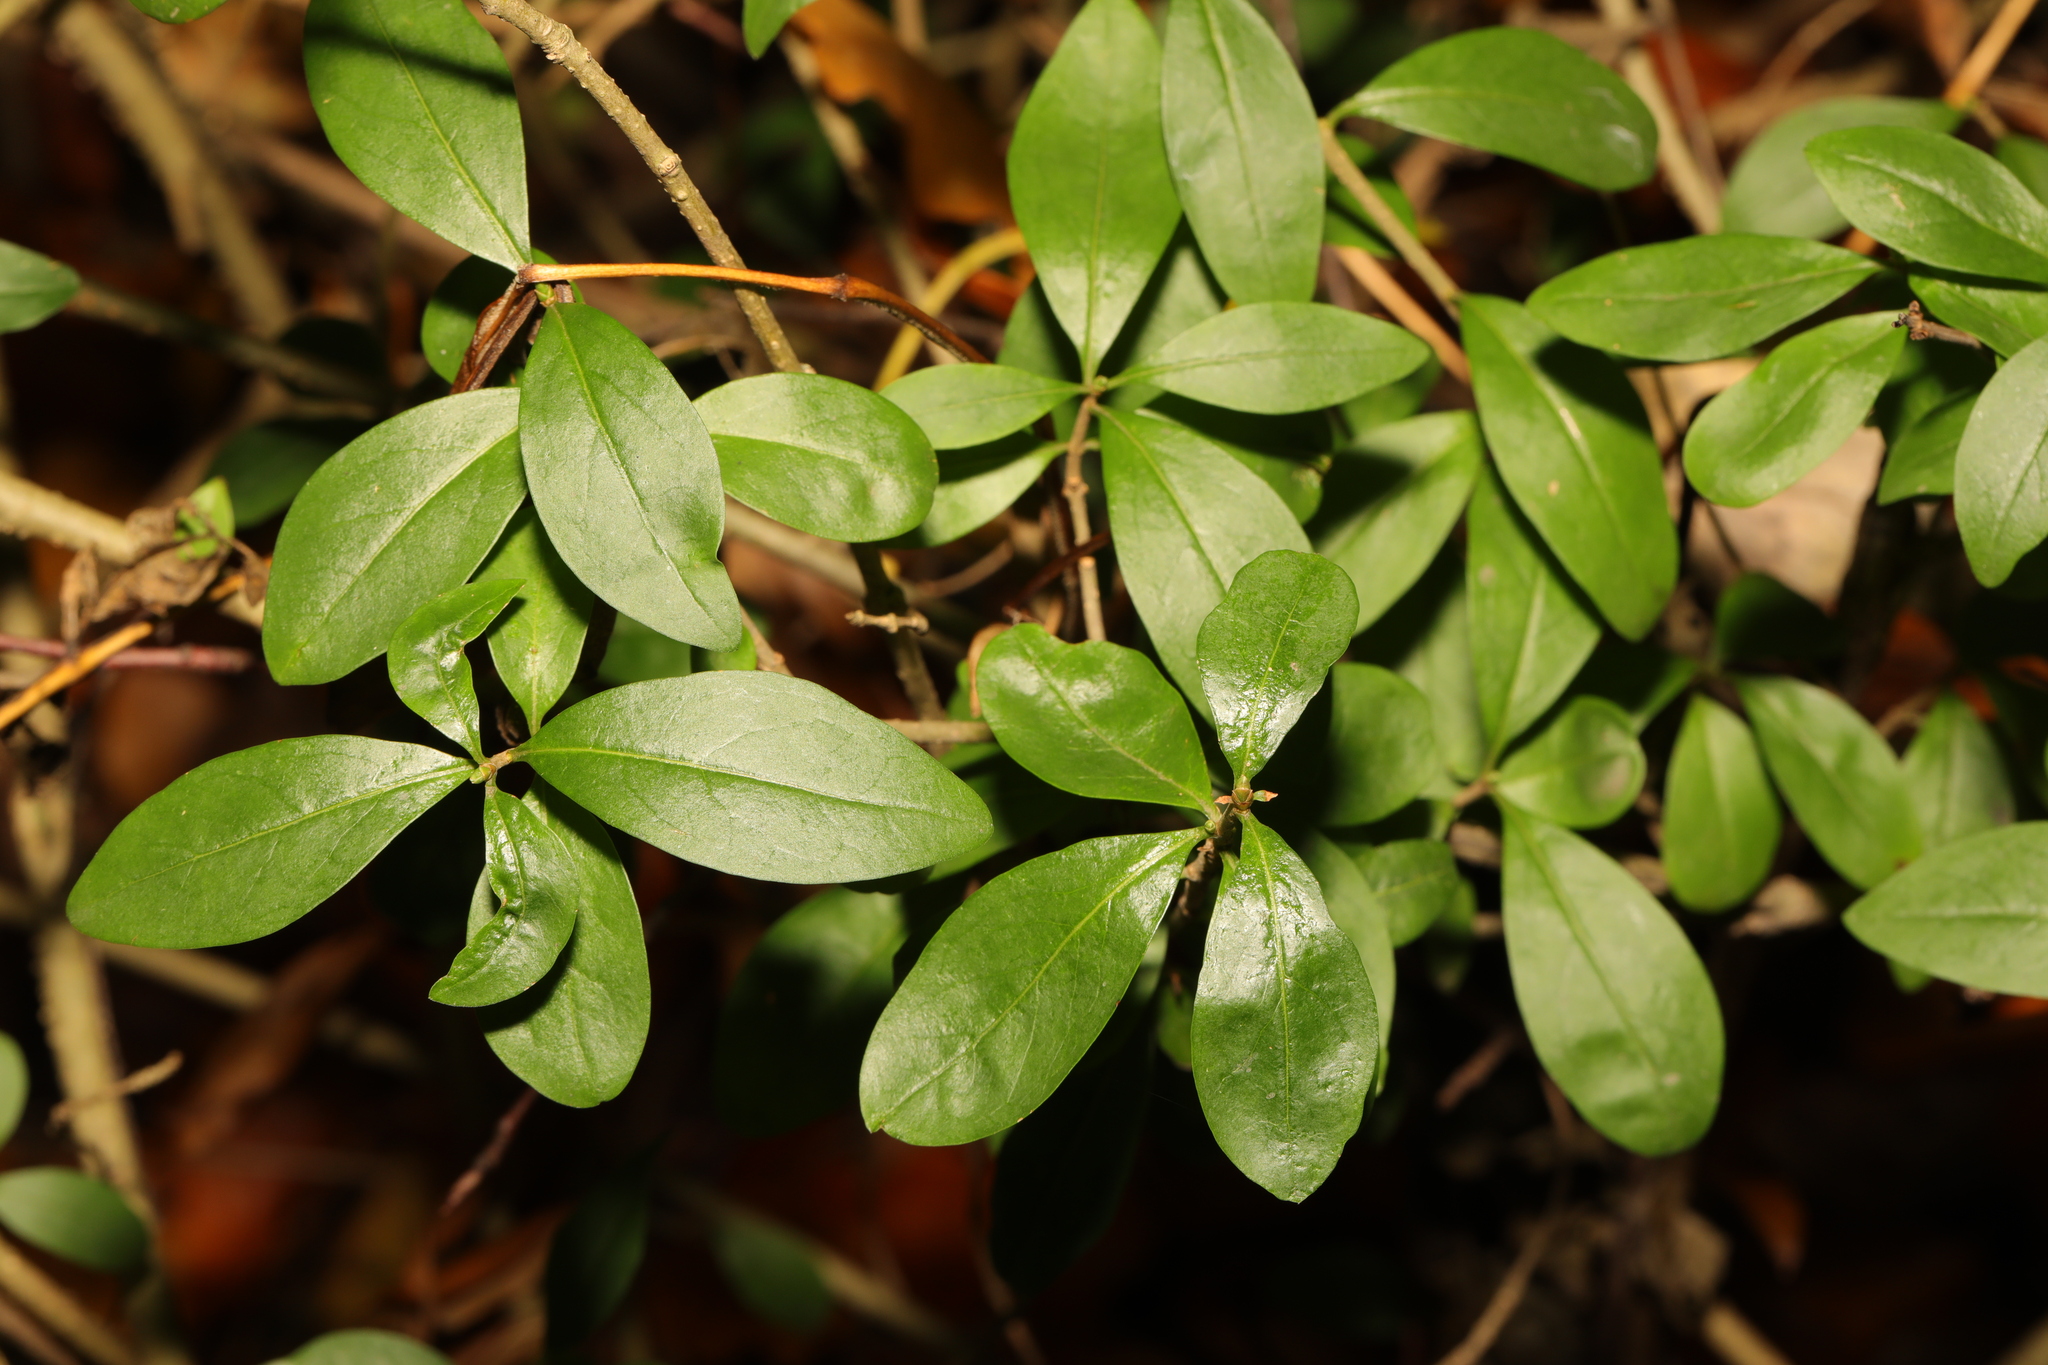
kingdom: Plantae
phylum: Tracheophyta
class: Magnoliopsida
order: Lamiales
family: Oleaceae
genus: Ligustrum
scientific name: Ligustrum vulgare
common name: Wild privet
